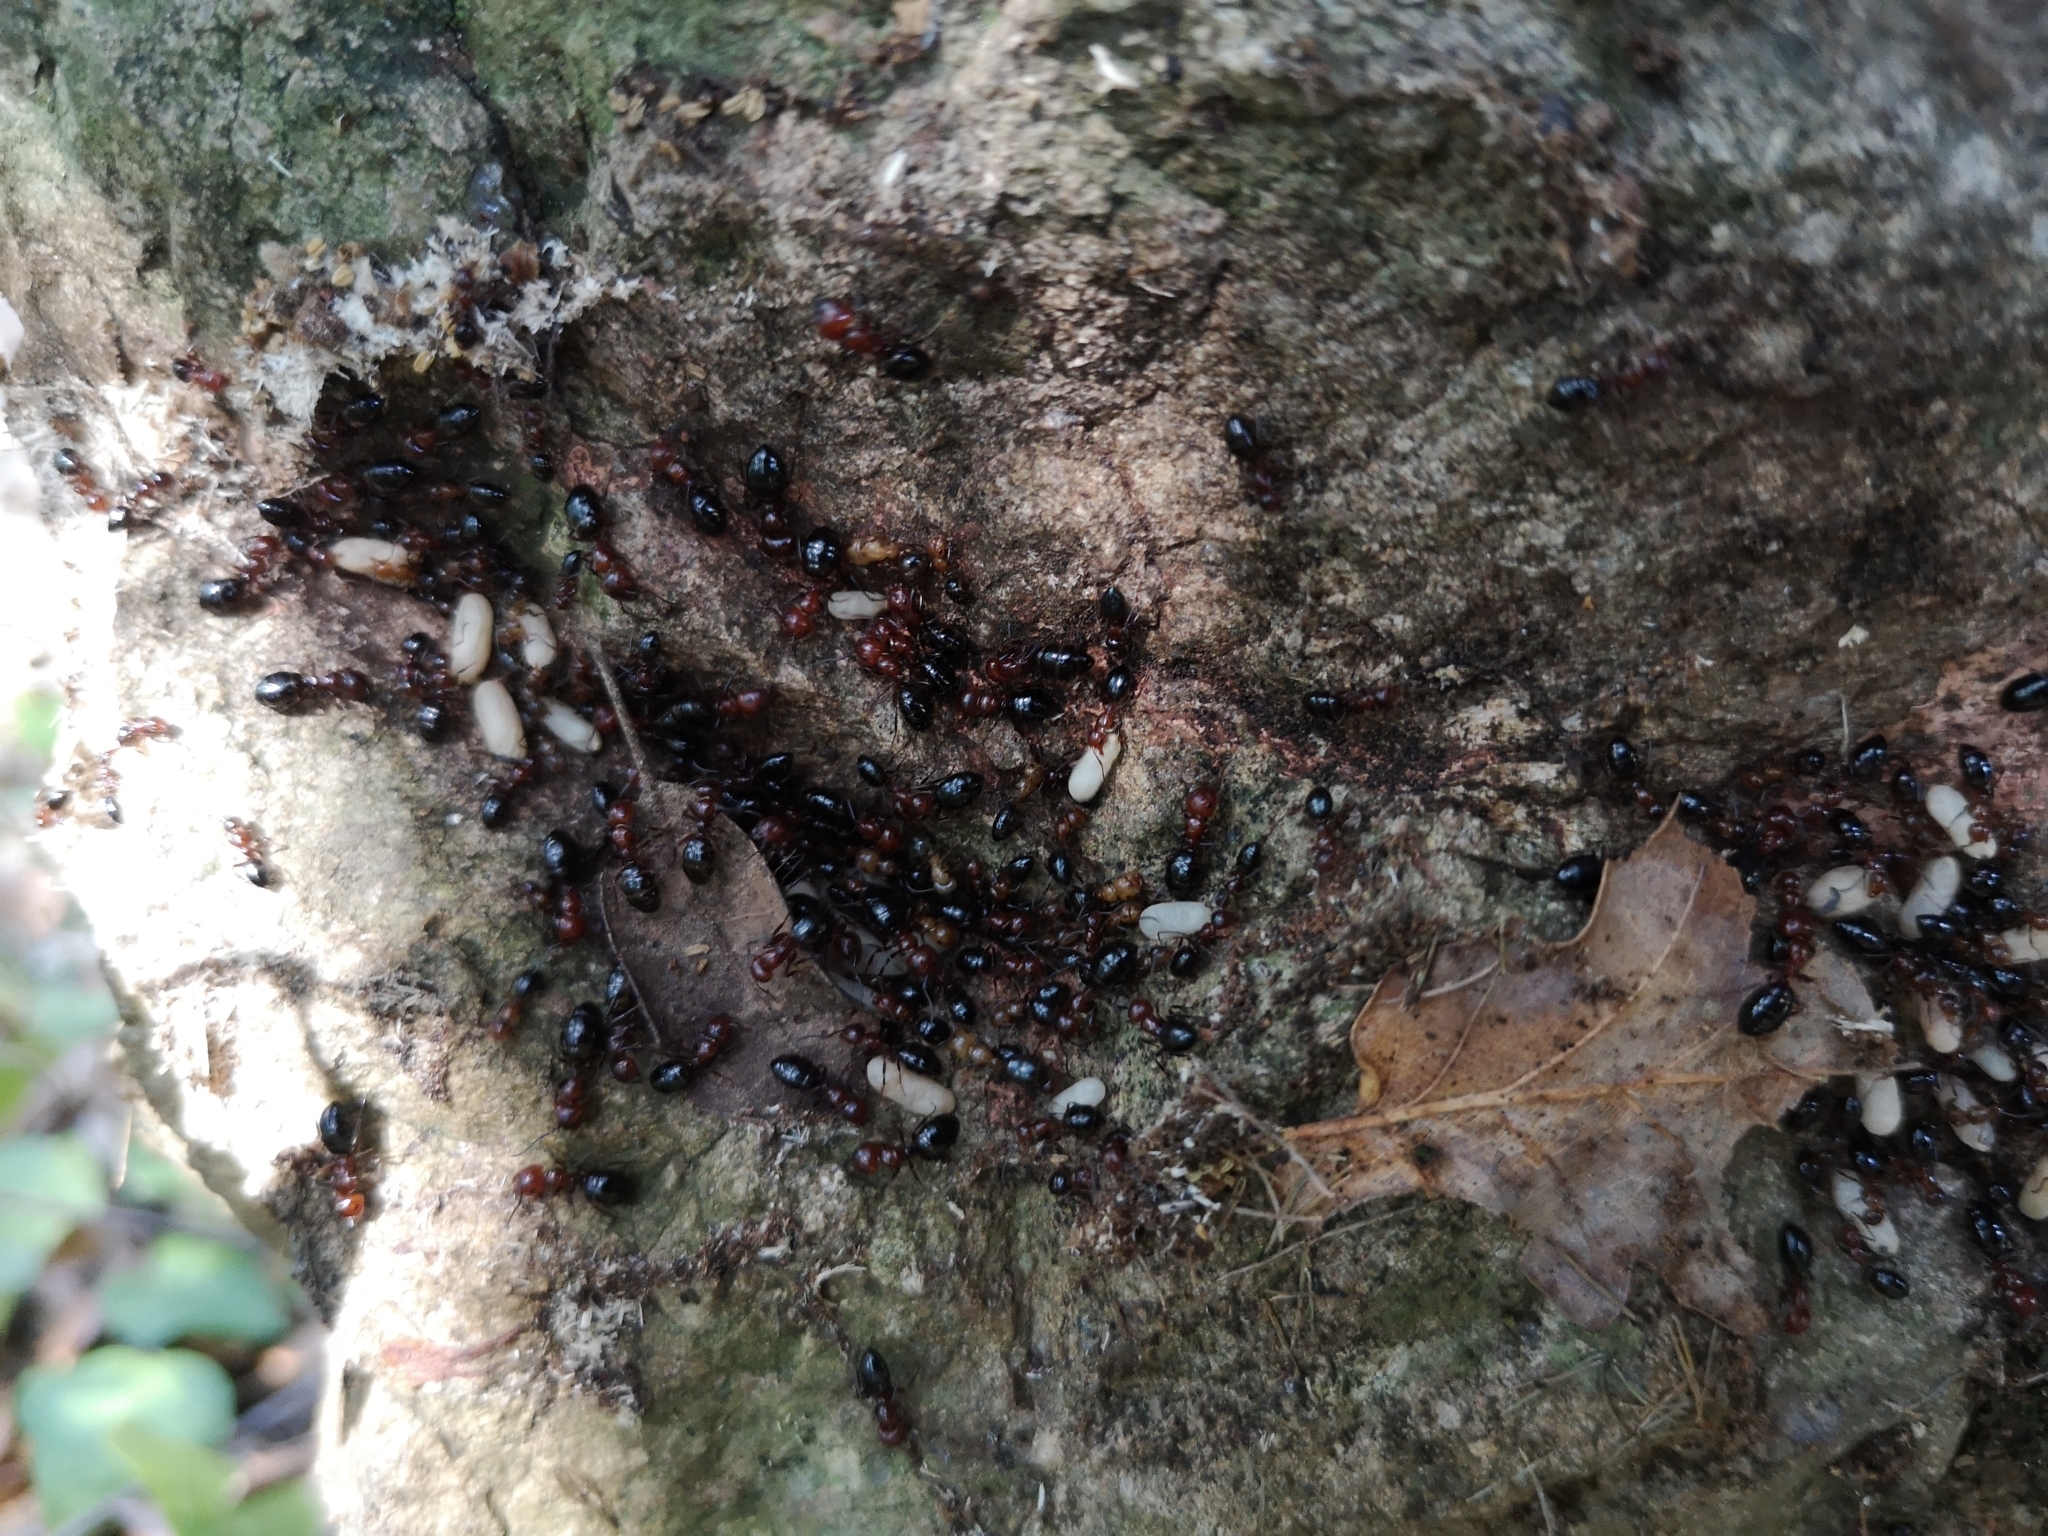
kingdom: Animalia
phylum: Arthropoda
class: Insecta
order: Hymenoptera
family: Formicidae
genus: Camponotus
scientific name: Camponotus lateralis
